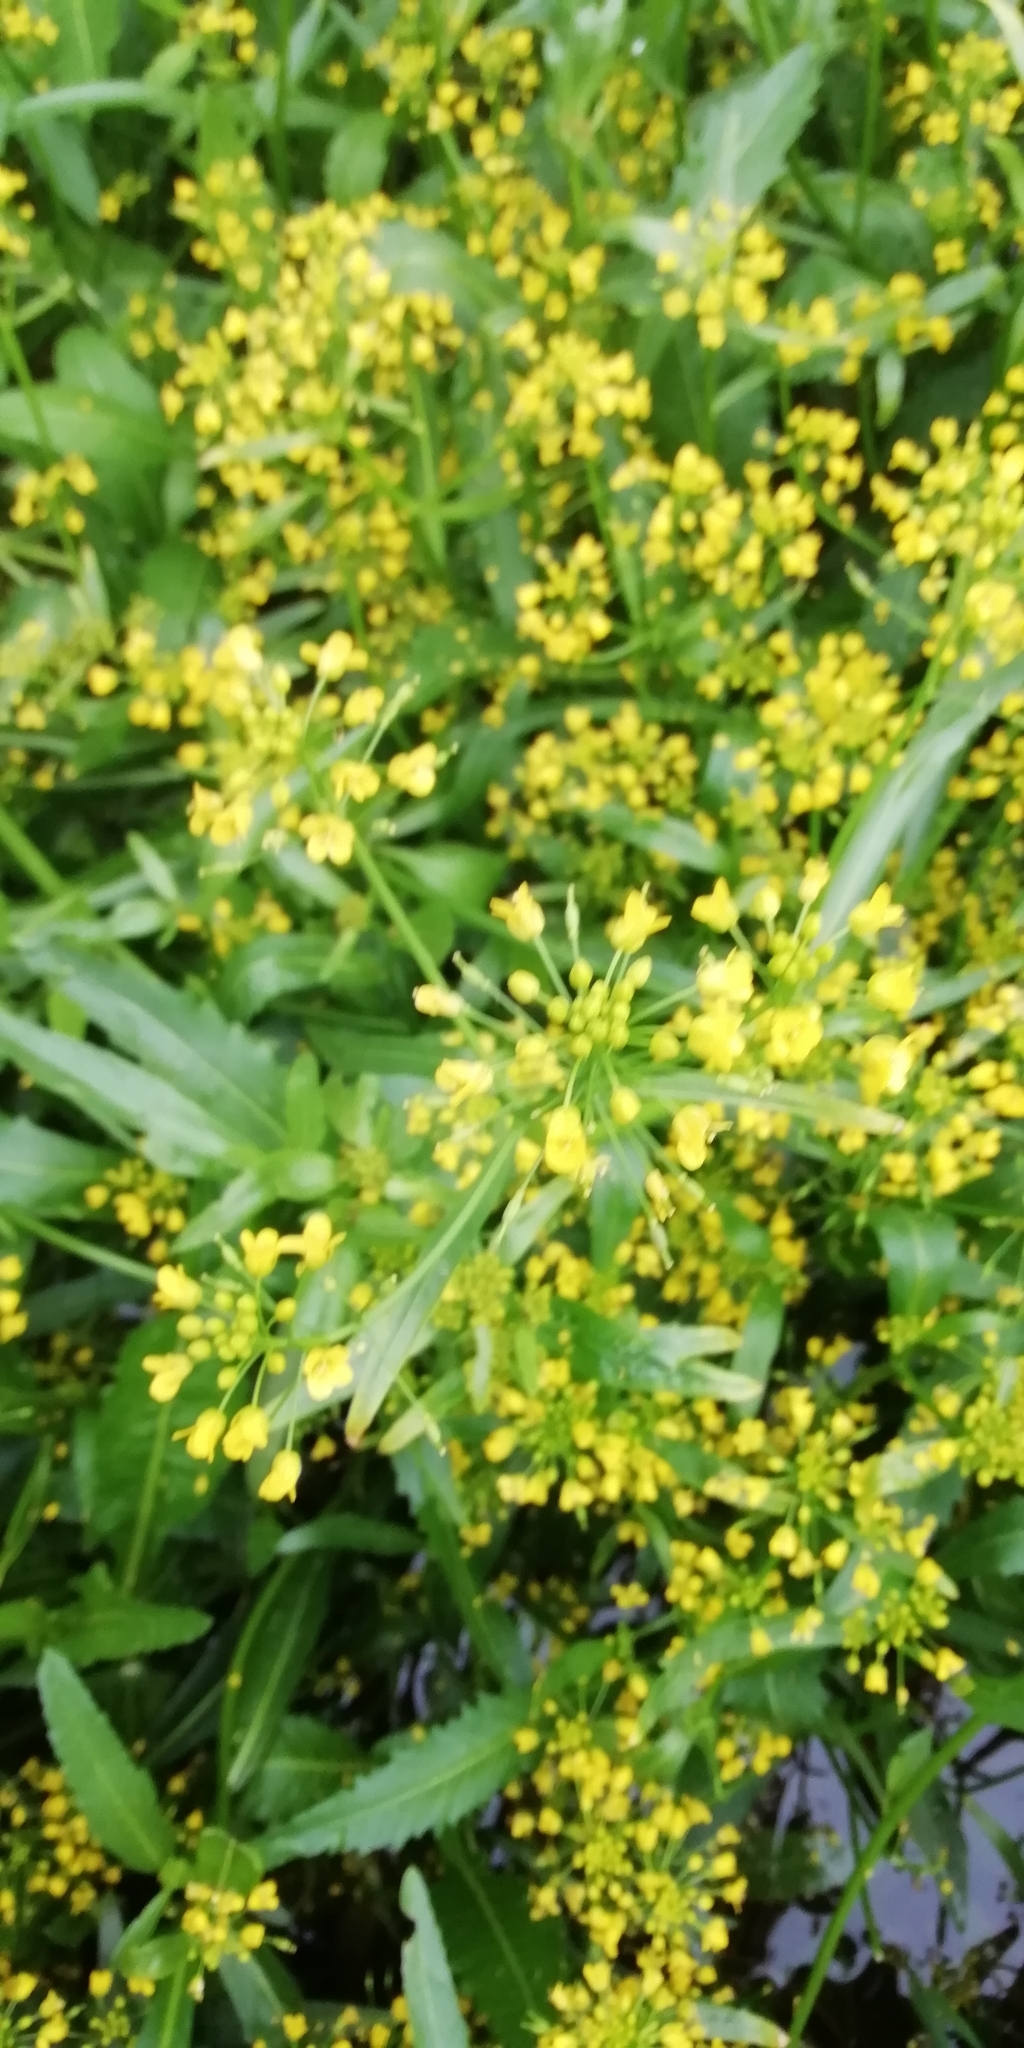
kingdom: Plantae
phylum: Tracheophyta
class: Magnoliopsida
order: Brassicales
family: Brassicaceae
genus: Rorippa
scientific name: Rorippa amphibia
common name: Great yellow-cress
